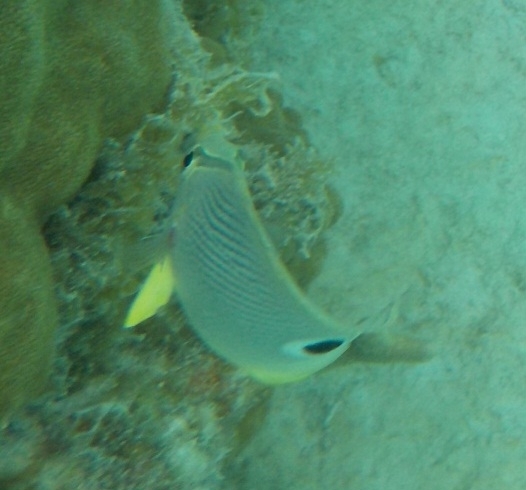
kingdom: Animalia
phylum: Chordata
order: Perciformes
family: Chaetodontidae
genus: Chaetodon
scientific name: Chaetodon capistratus
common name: Kete
